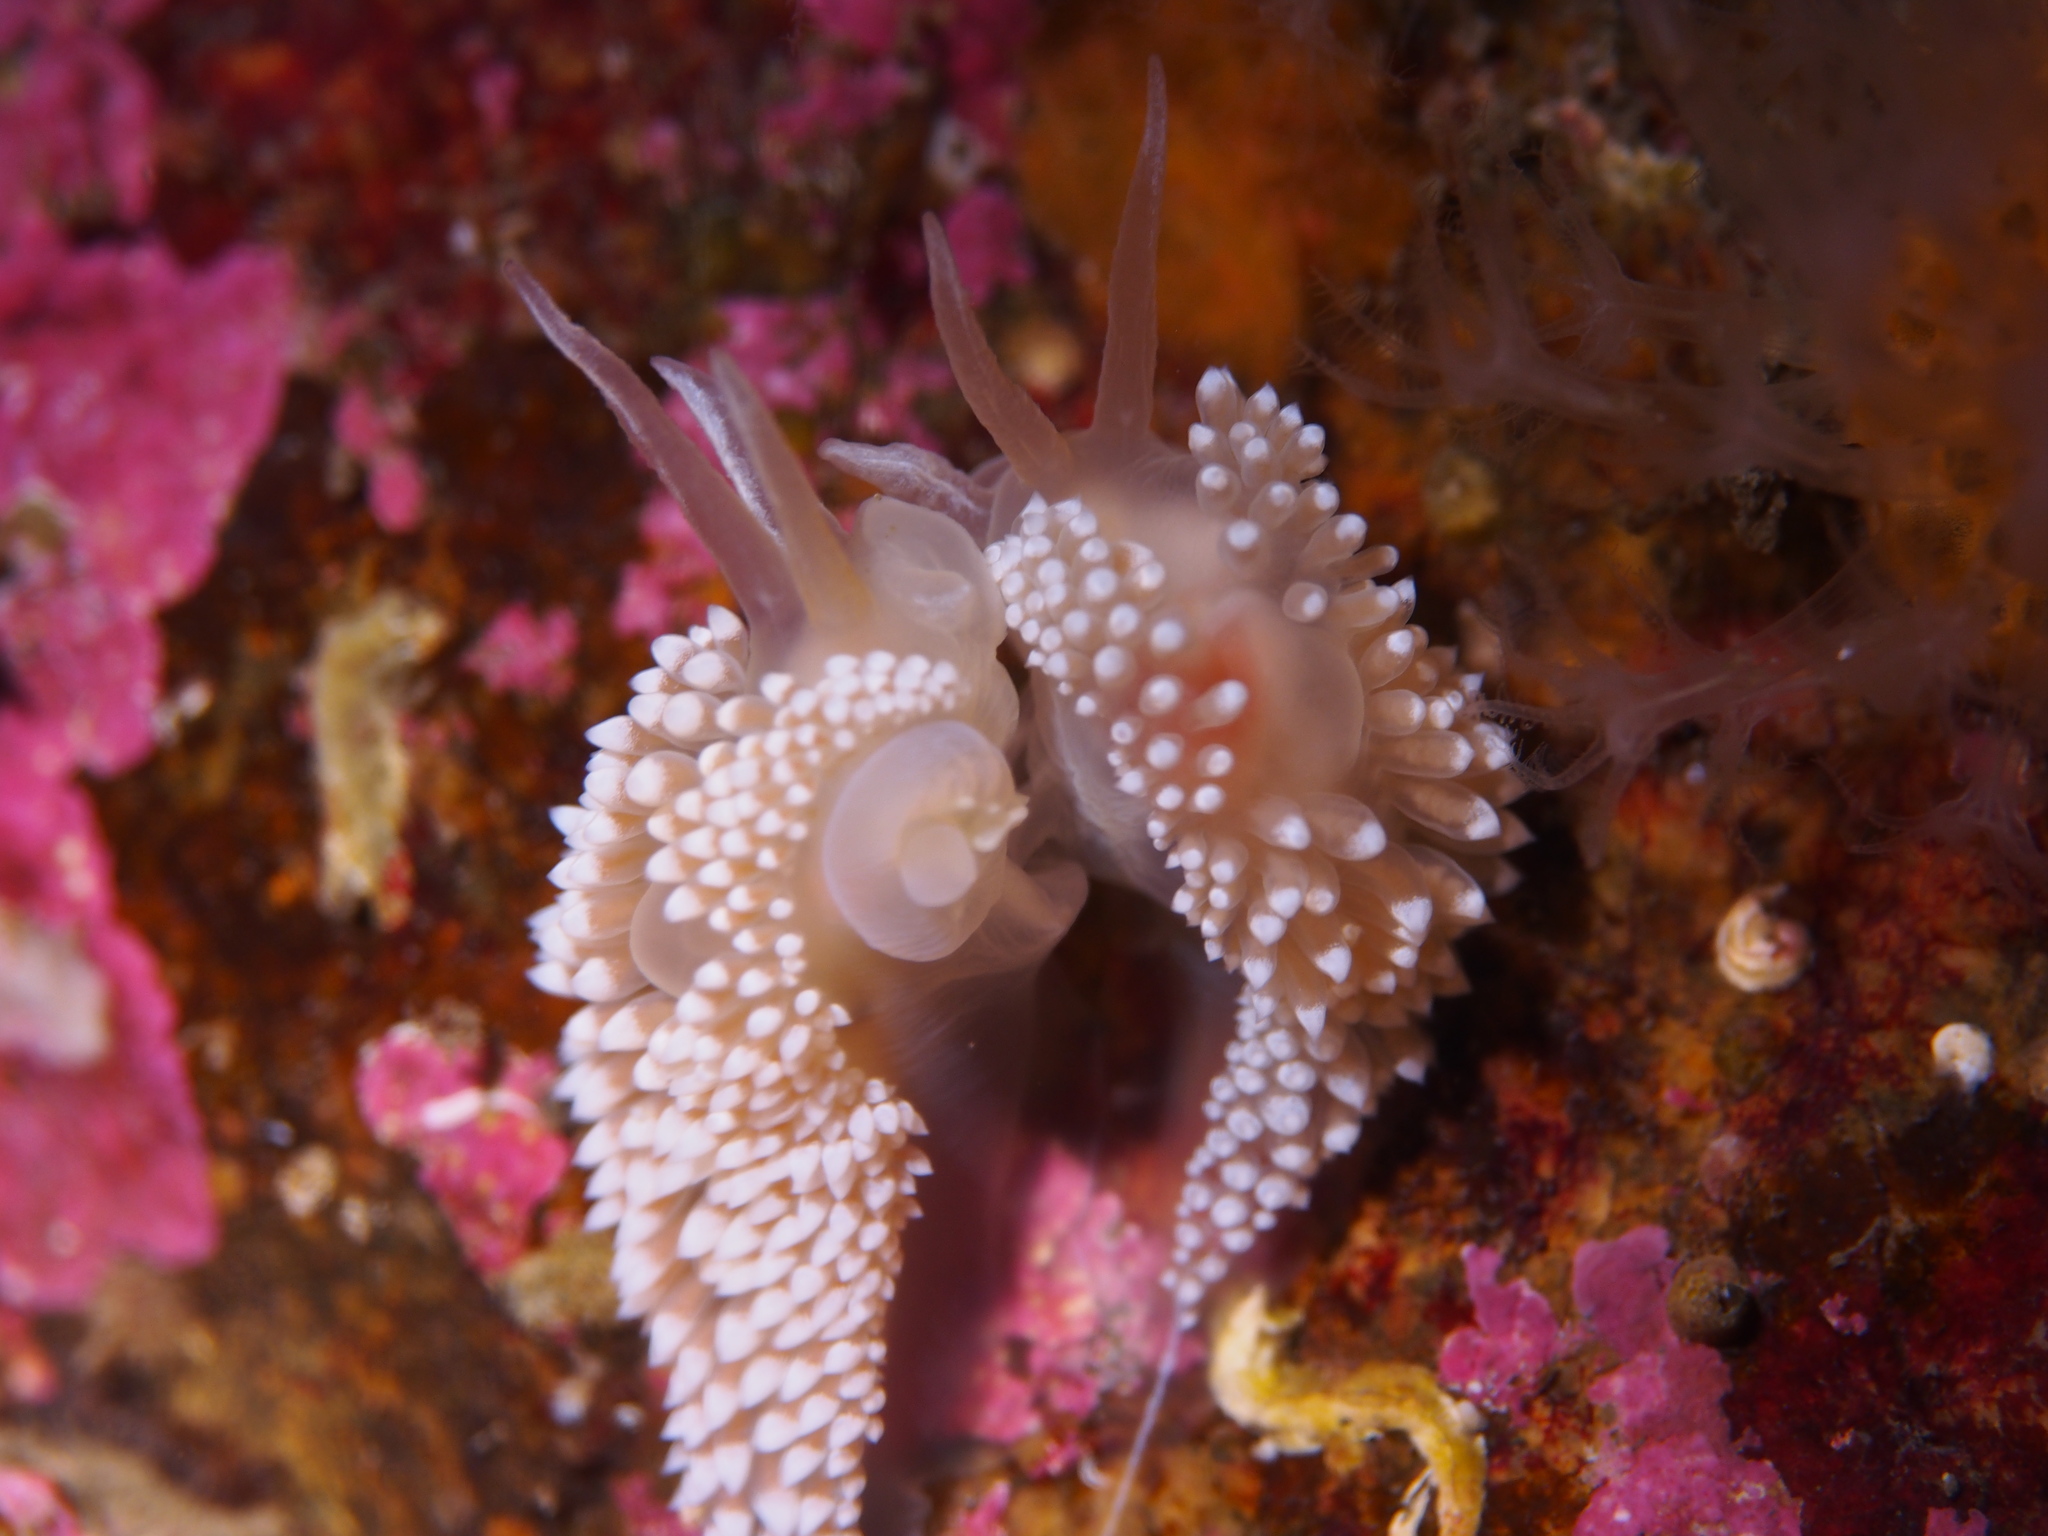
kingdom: Animalia
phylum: Mollusca
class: Gastropoda
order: Nudibranchia
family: Coryphellidae
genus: Coryphella
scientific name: Coryphella verrucosa
